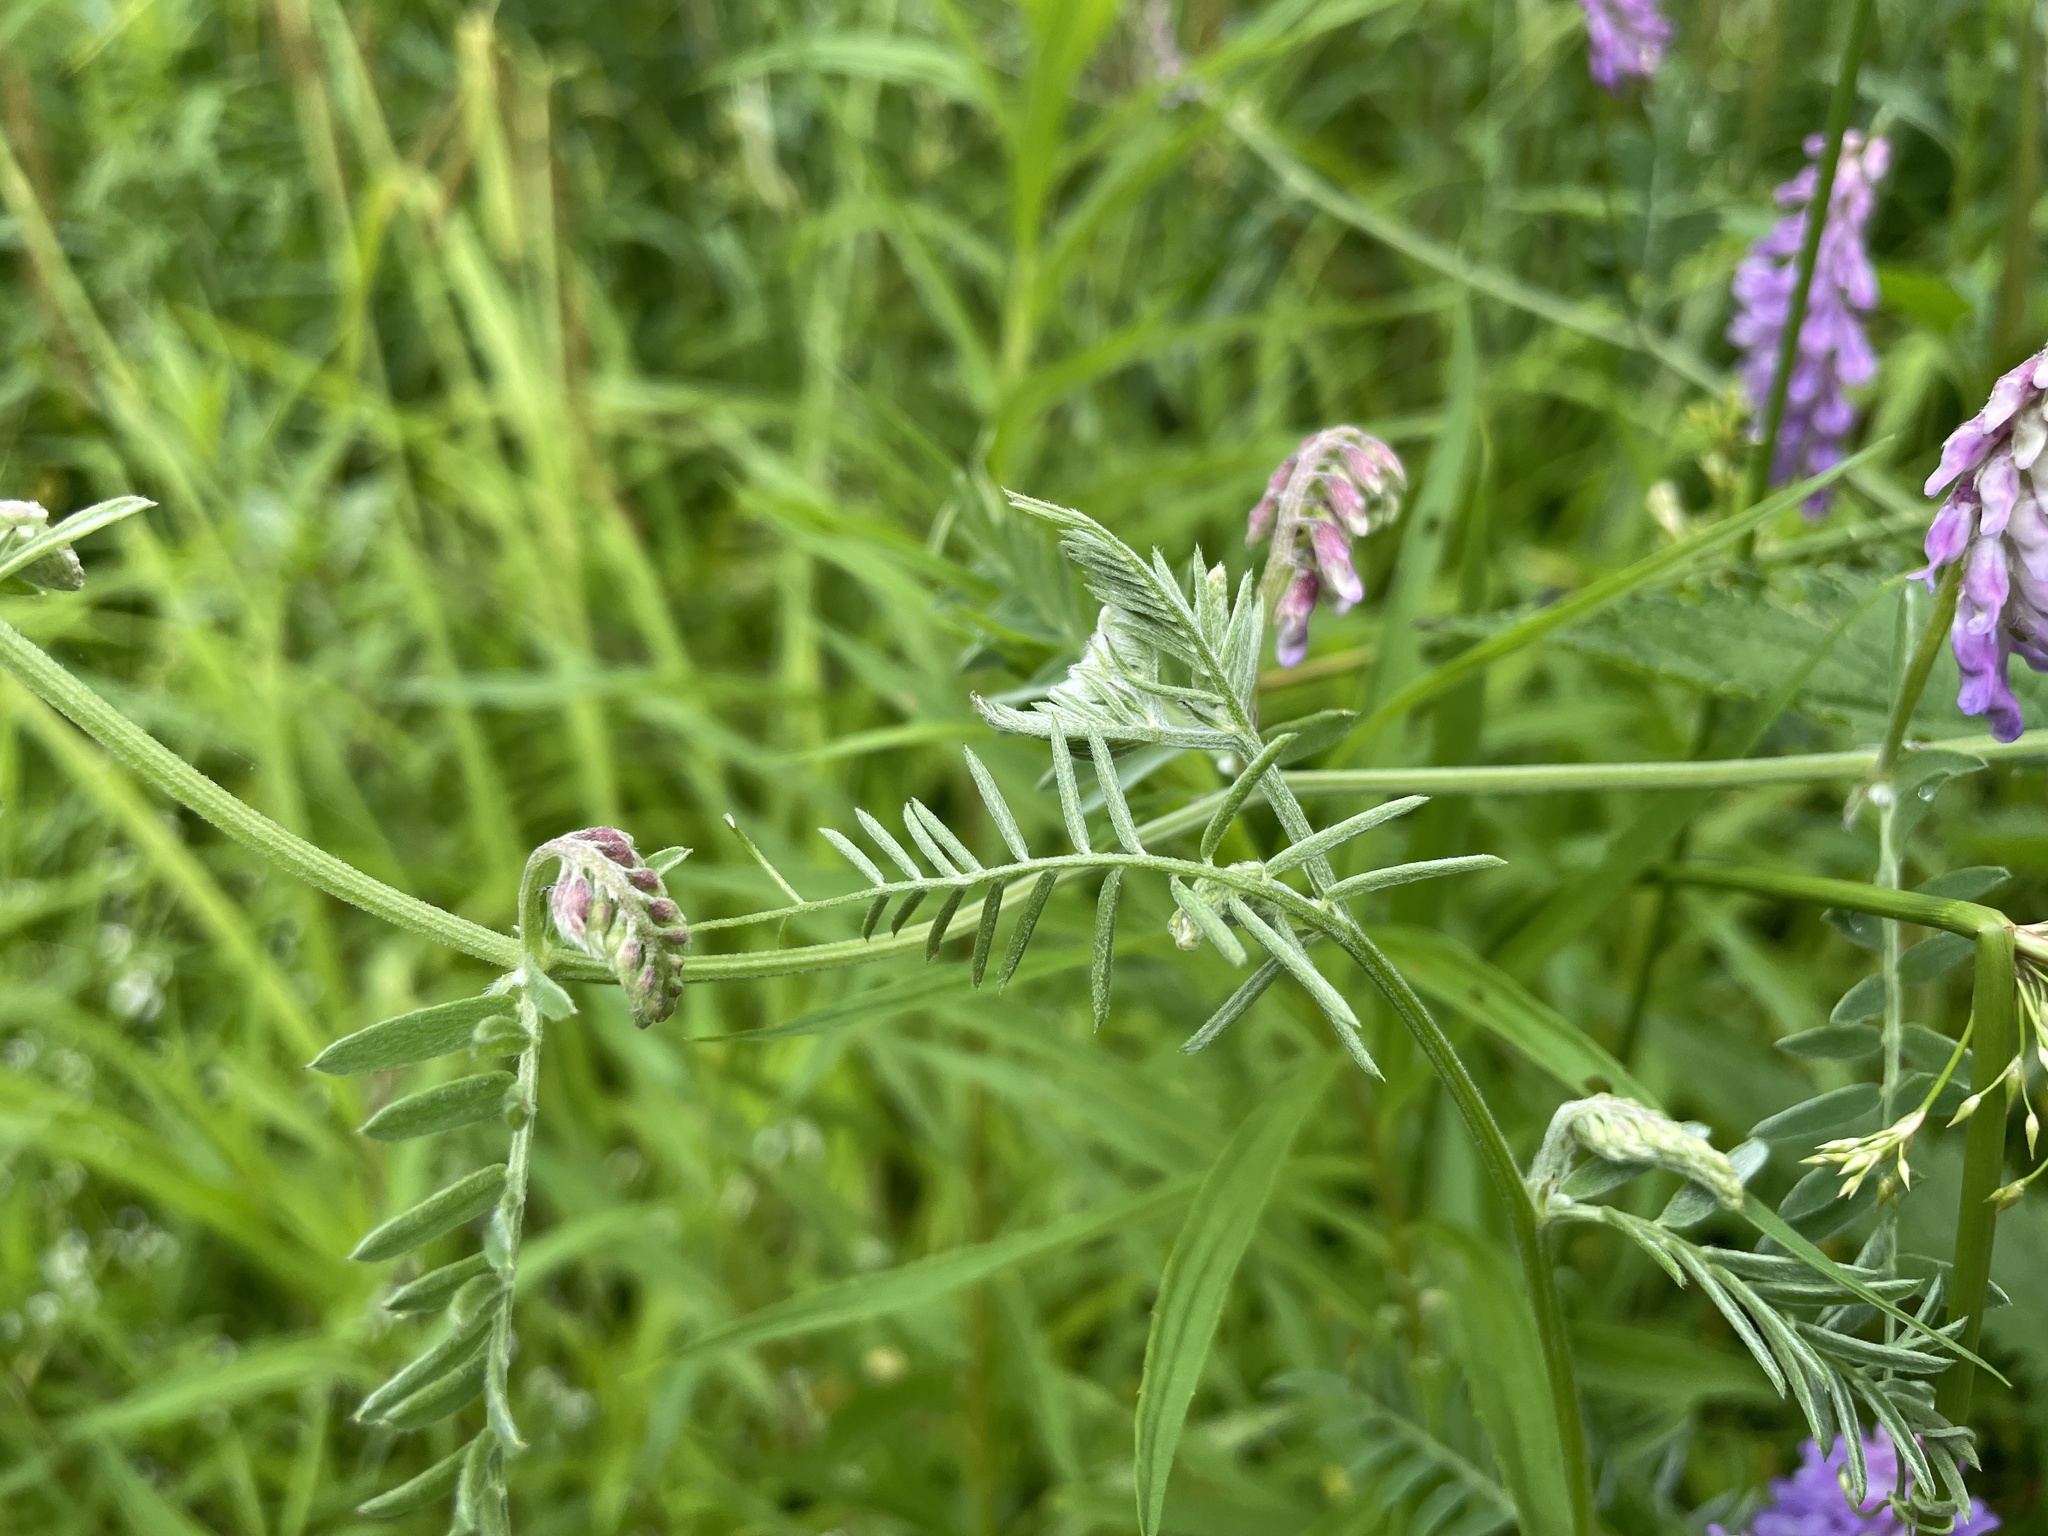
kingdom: Plantae
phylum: Tracheophyta
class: Magnoliopsida
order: Fabales
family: Fabaceae
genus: Vicia
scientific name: Vicia cracca
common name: Bird vetch
